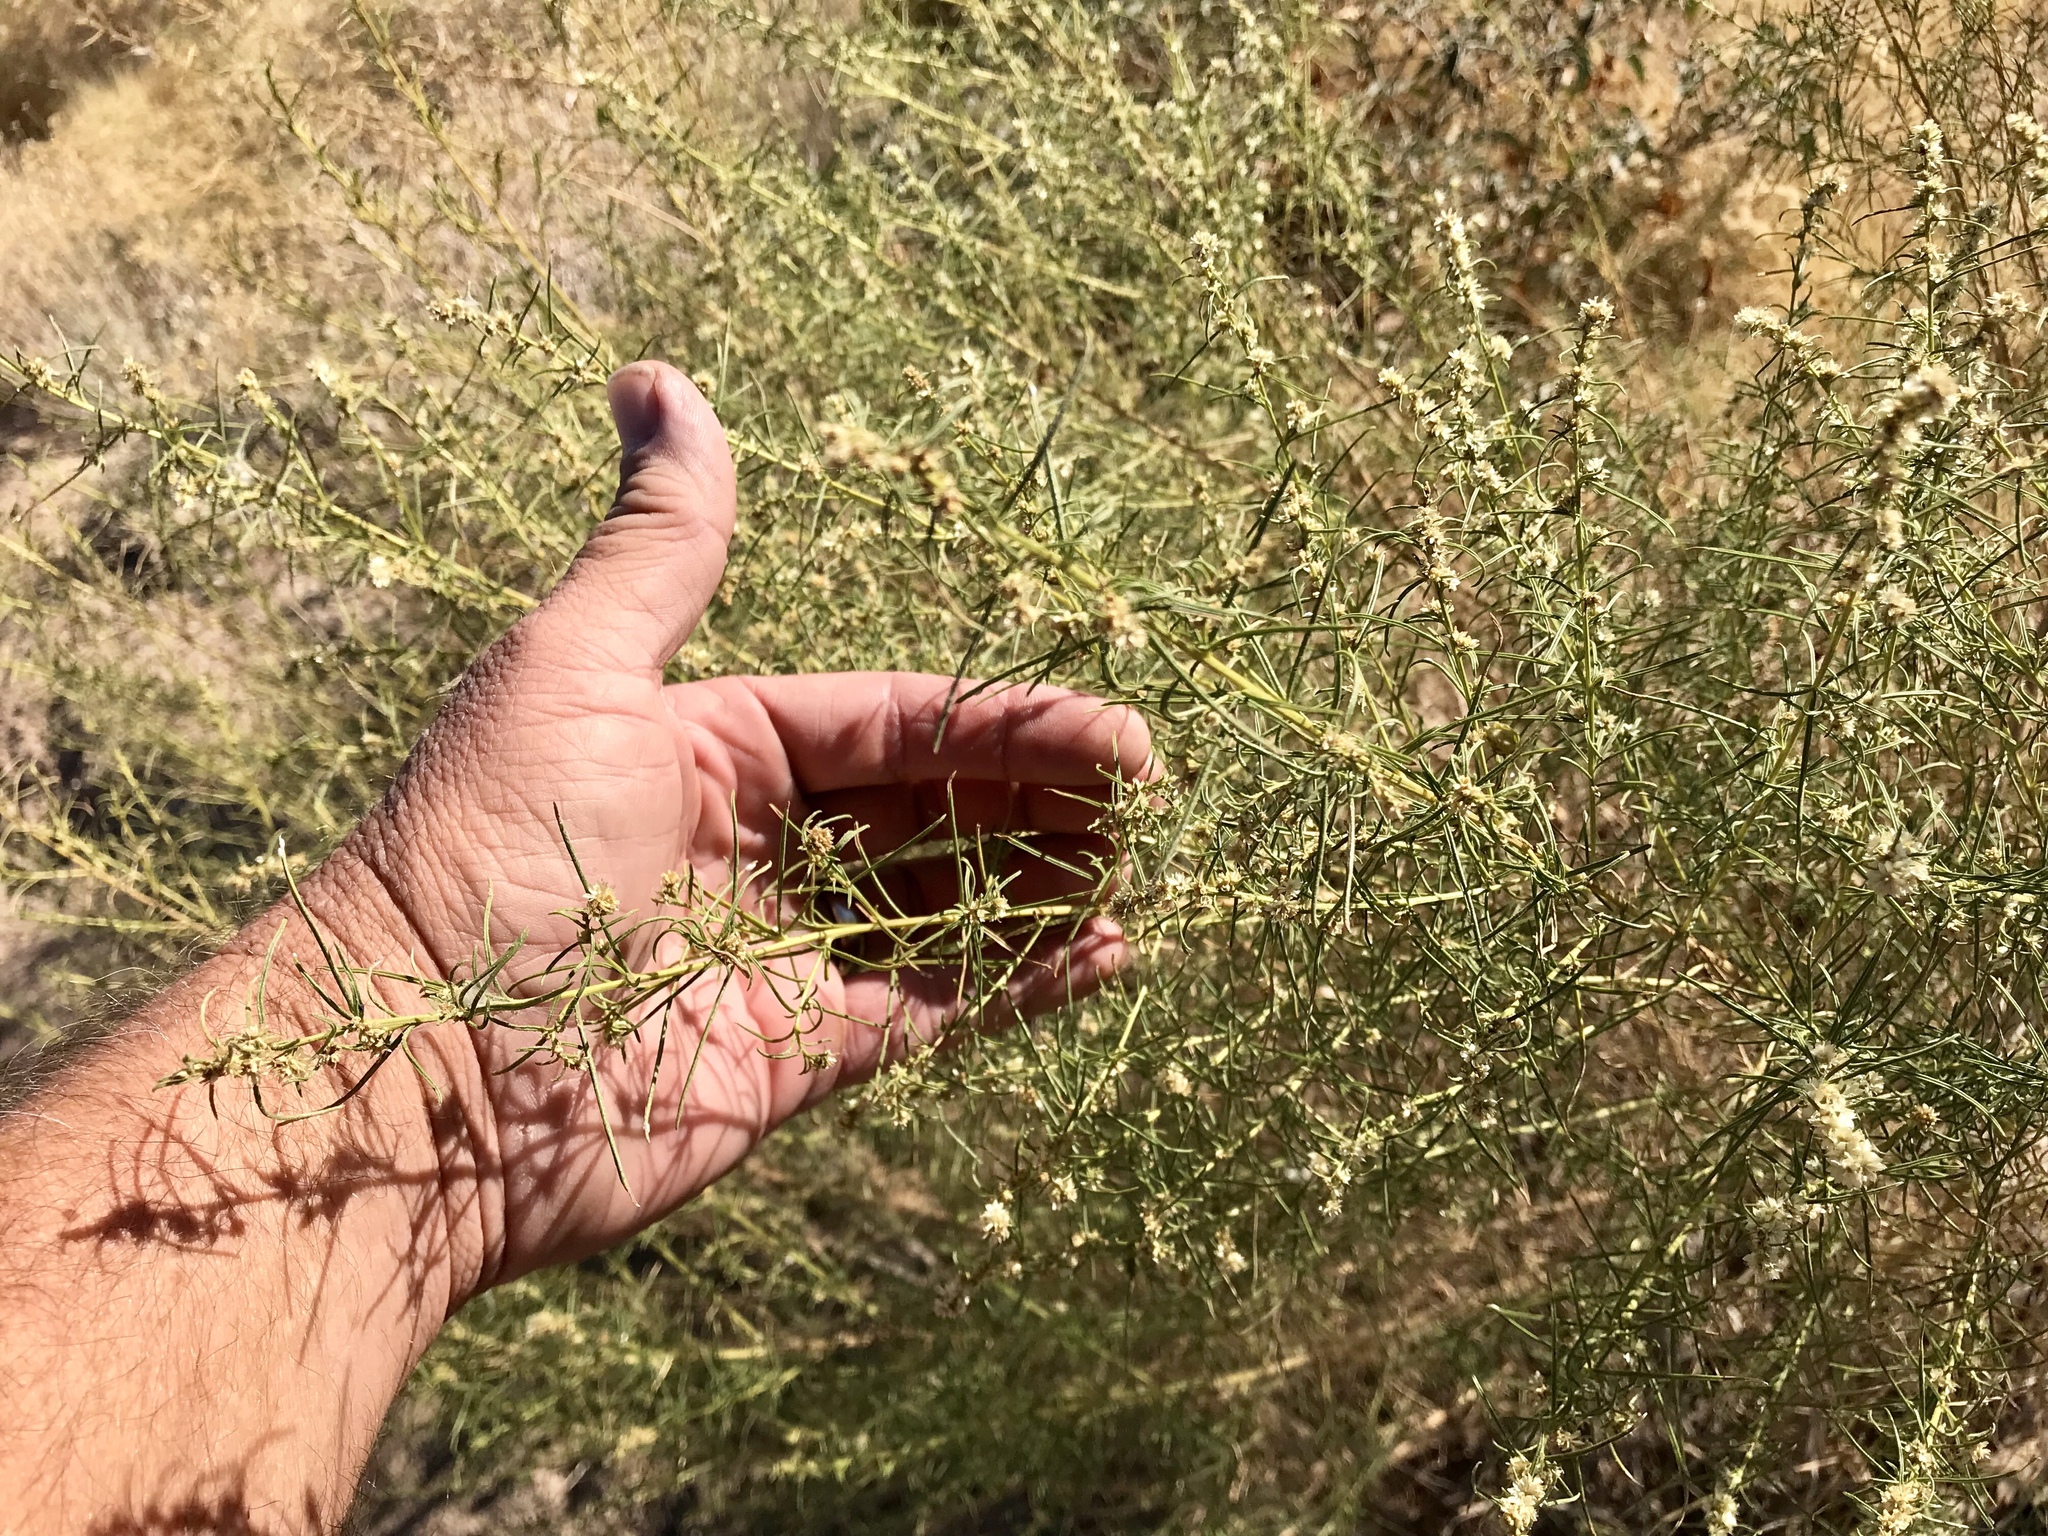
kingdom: Plantae
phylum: Tracheophyta
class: Magnoliopsida
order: Asterales
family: Asteraceae
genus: Ambrosia
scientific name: Ambrosia salsola
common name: Burrobrush
